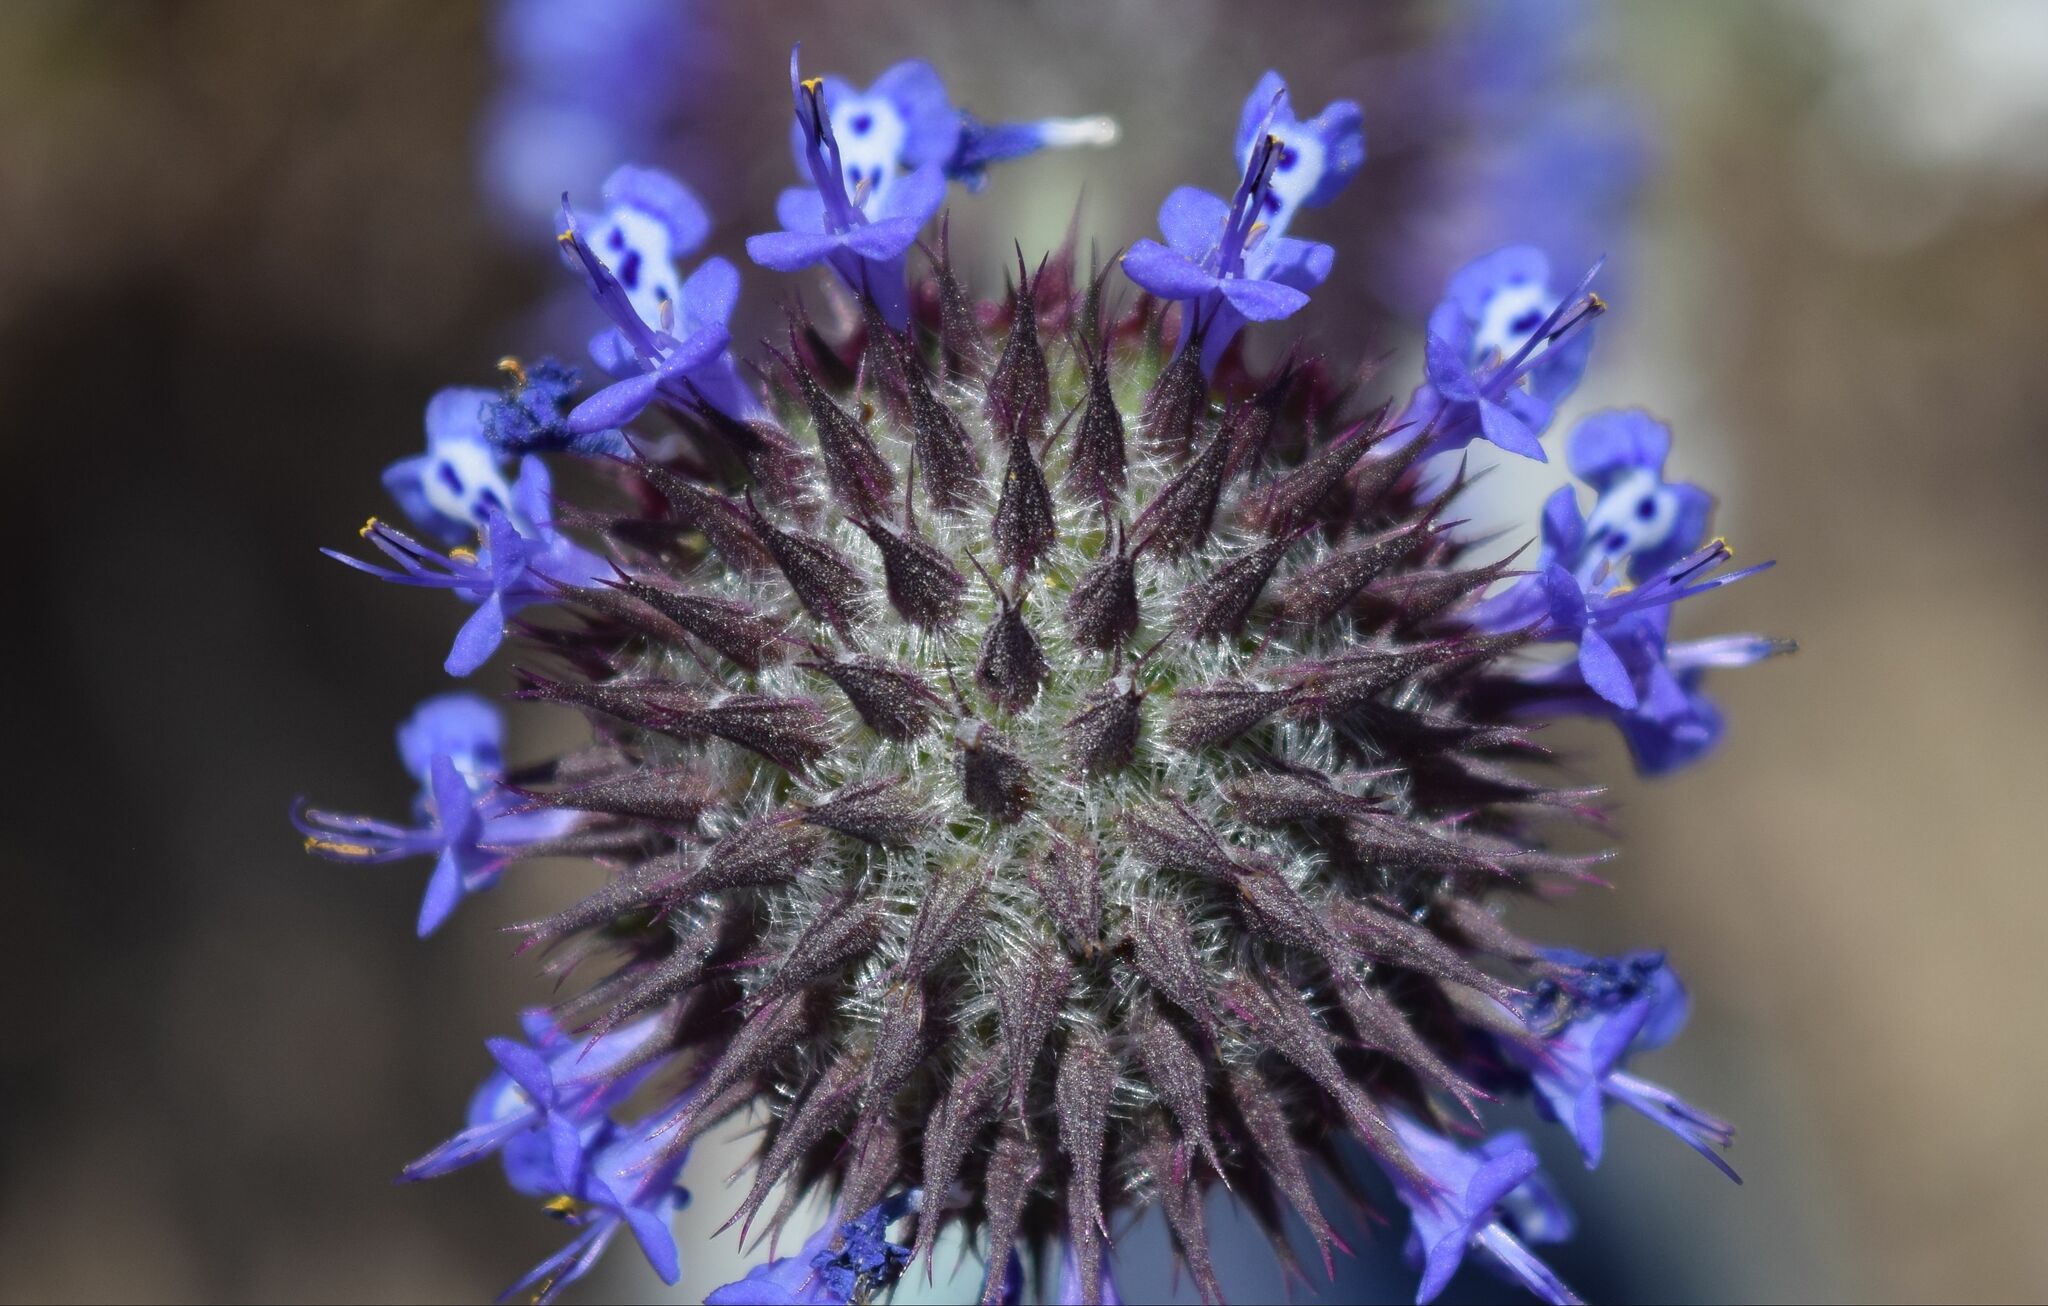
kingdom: Plantae
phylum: Tracheophyta
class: Magnoliopsida
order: Lamiales
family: Lamiaceae
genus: Salvia
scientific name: Salvia columbariae
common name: Chia
